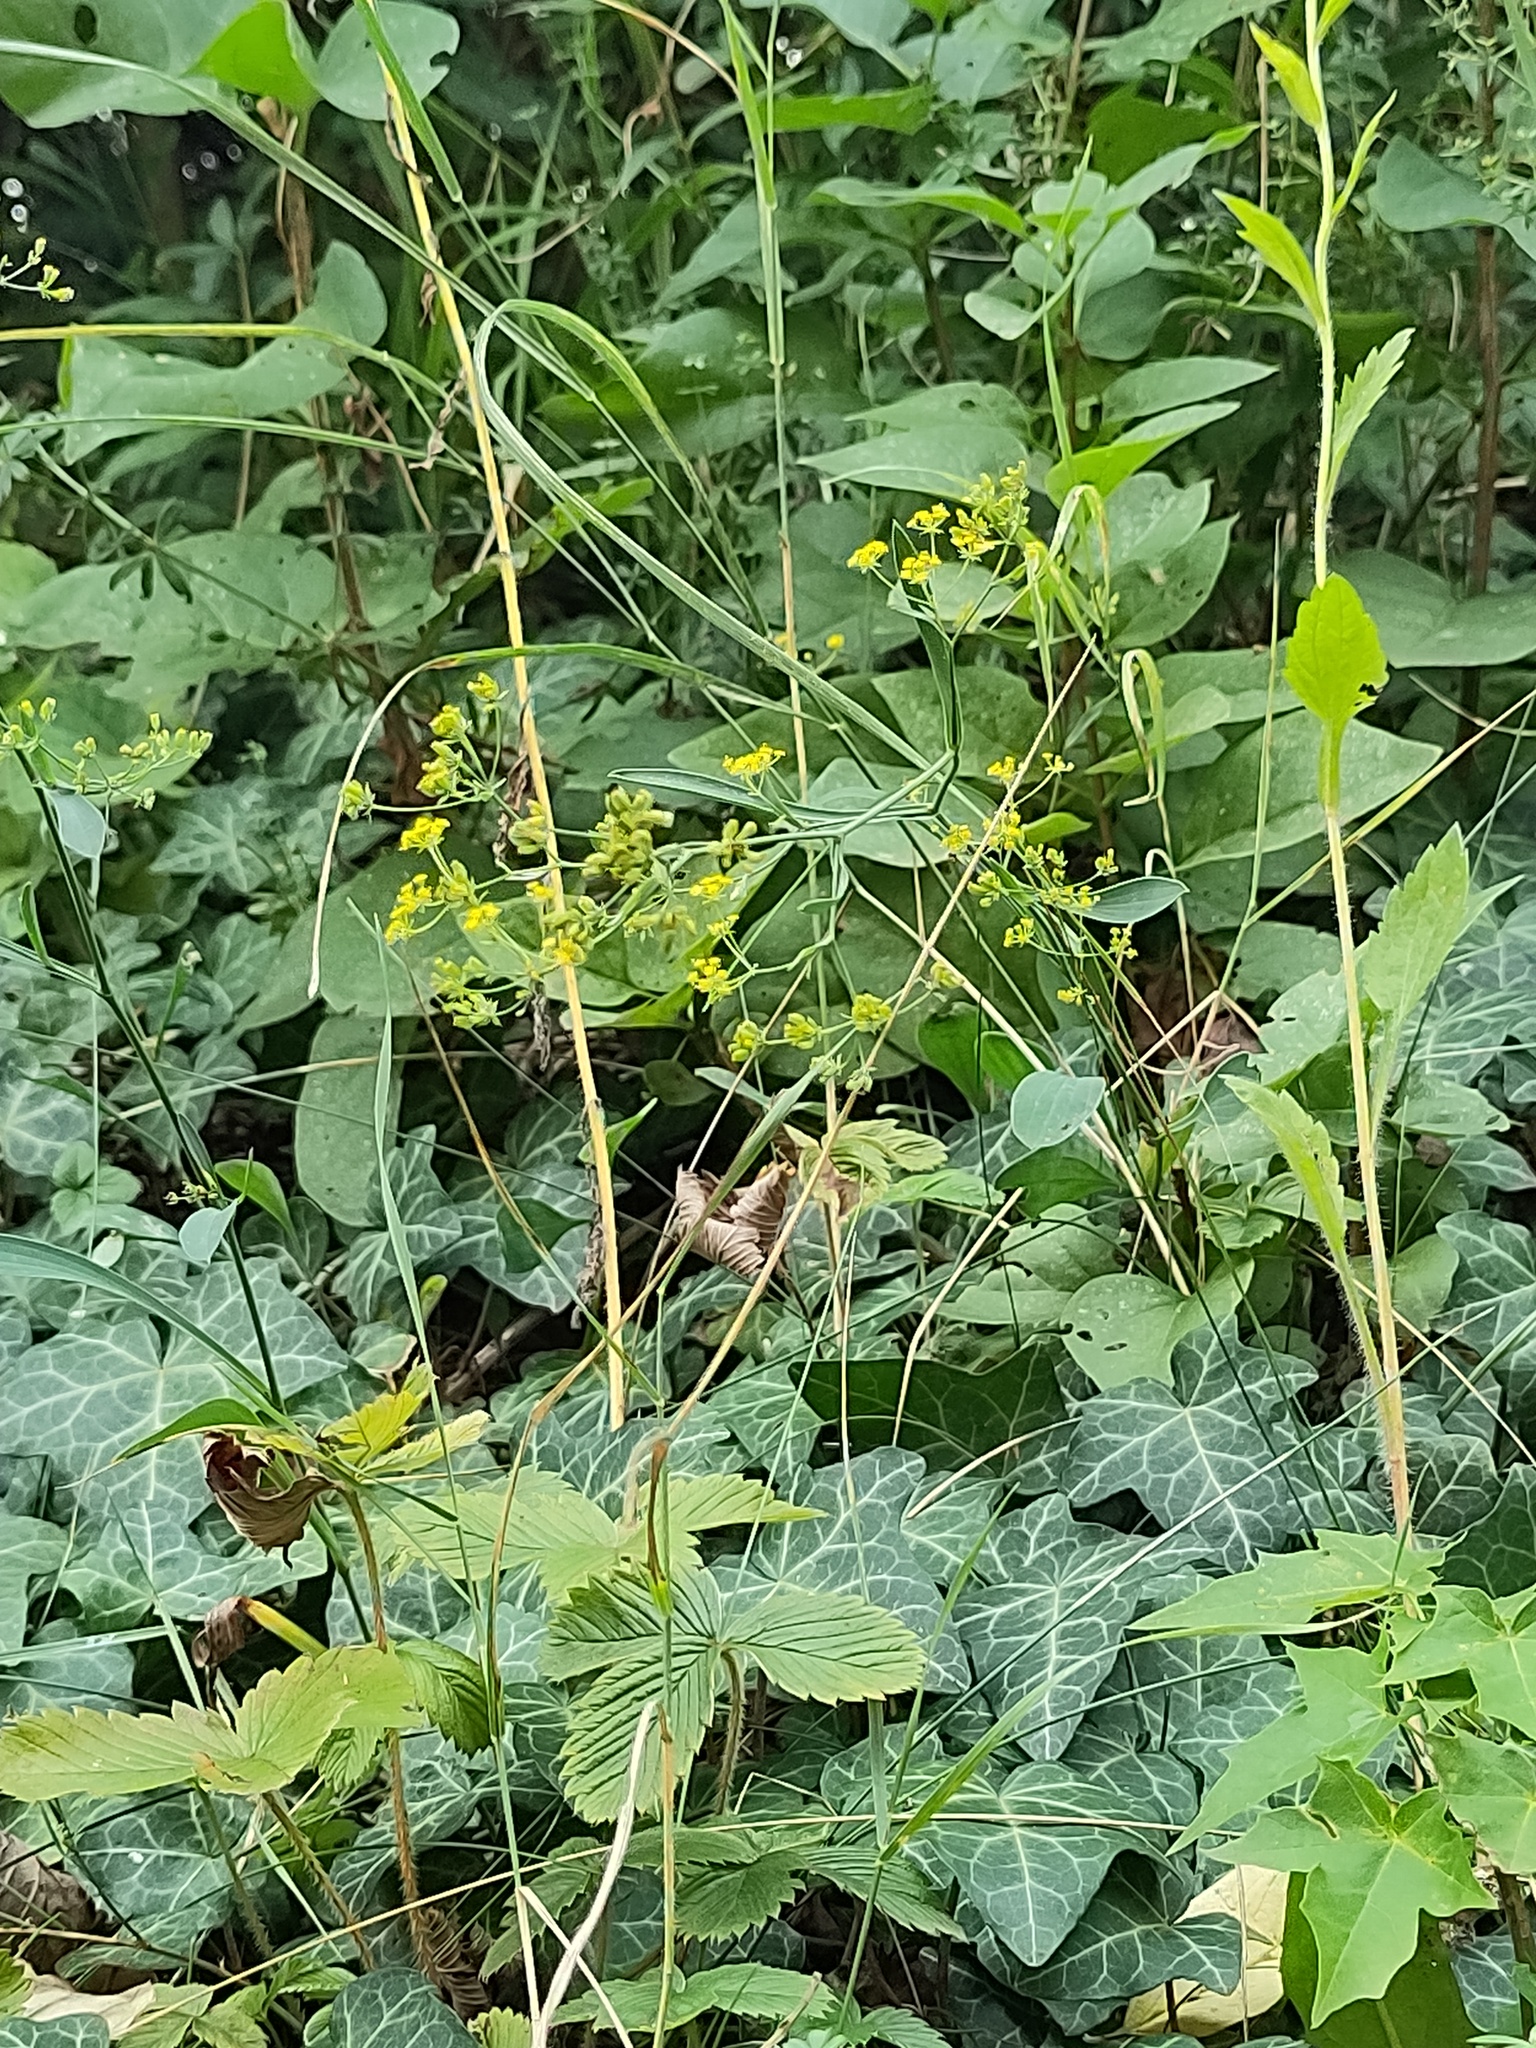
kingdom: Plantae
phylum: Tracheophyta
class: Magnoliopsida
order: Apiales
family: Apiaceae
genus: Bupleurum
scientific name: Bupleurum falcatum
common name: Sickle-leaved hare's-ear
